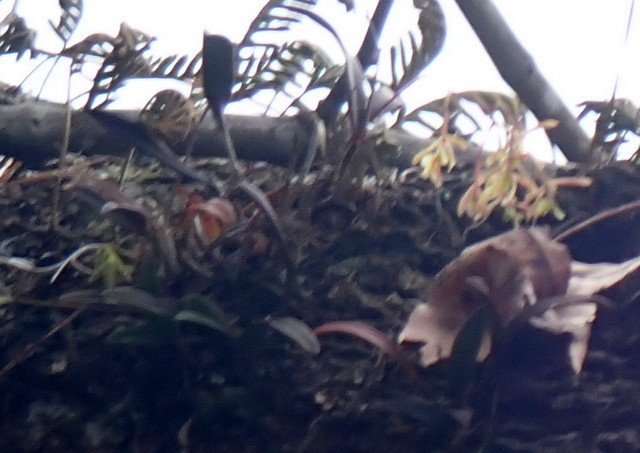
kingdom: Plantae
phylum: Tracheophyta
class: Liliopsida
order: Asparagales
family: Orchidaceae
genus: Epidendrum
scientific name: Epidendrum conopseum
